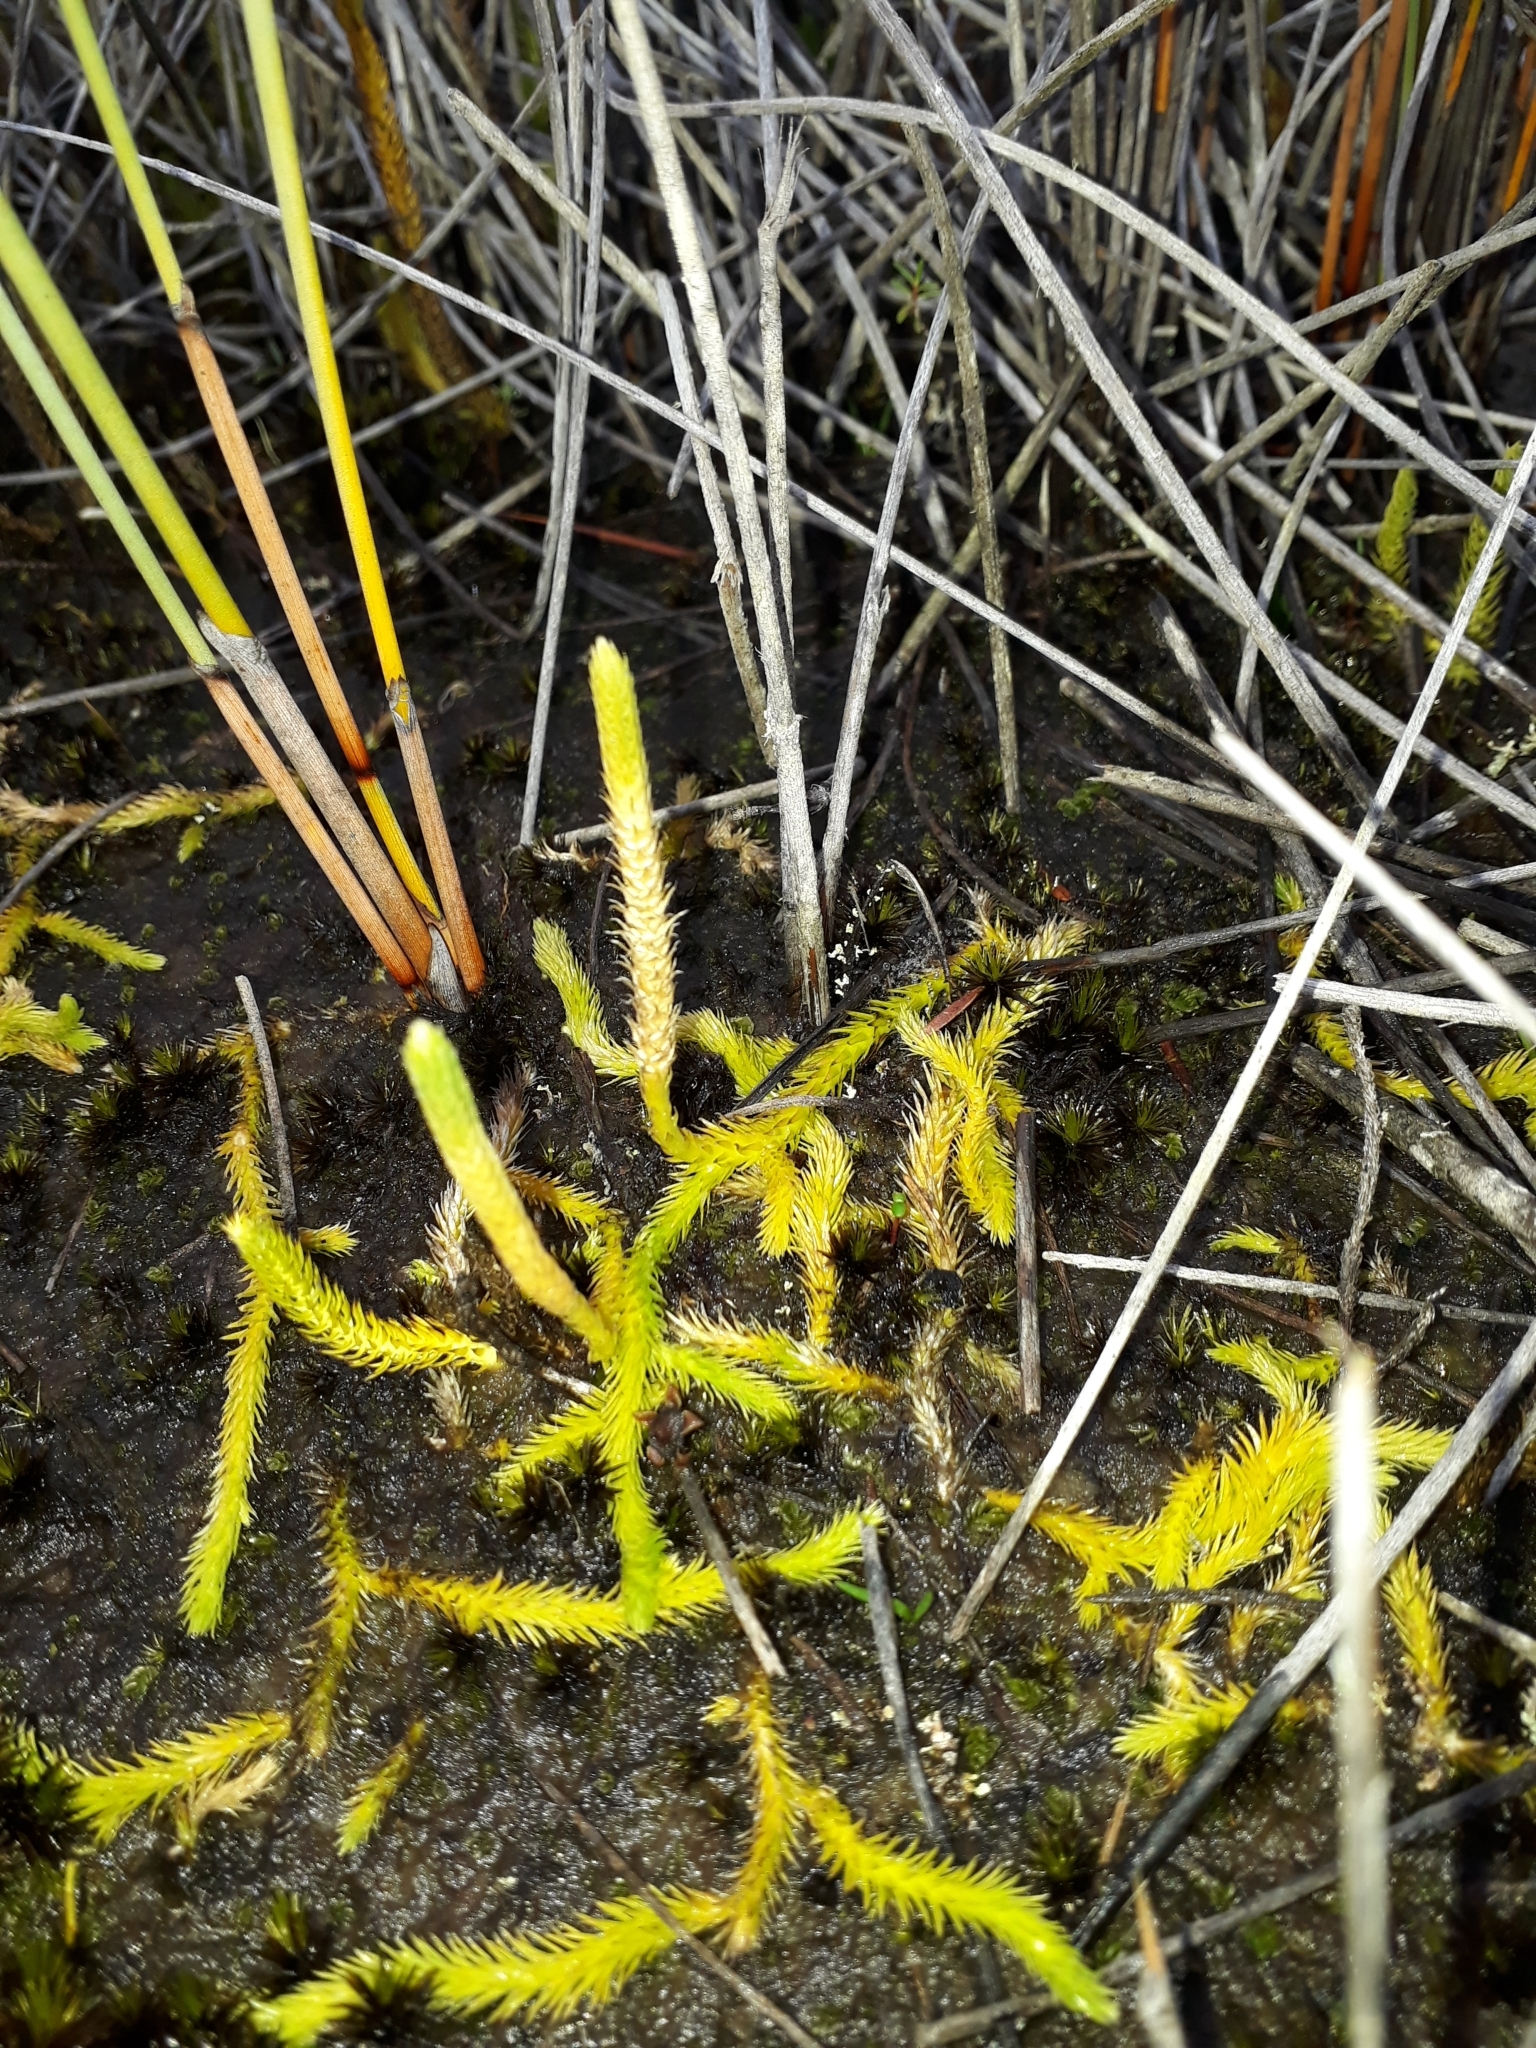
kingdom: Plantae
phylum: Tracheophyta
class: Lycopodiopsida
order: Lycopodiales
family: Lycopodiaceae
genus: Brownseya
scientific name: Brownseya serpentina
